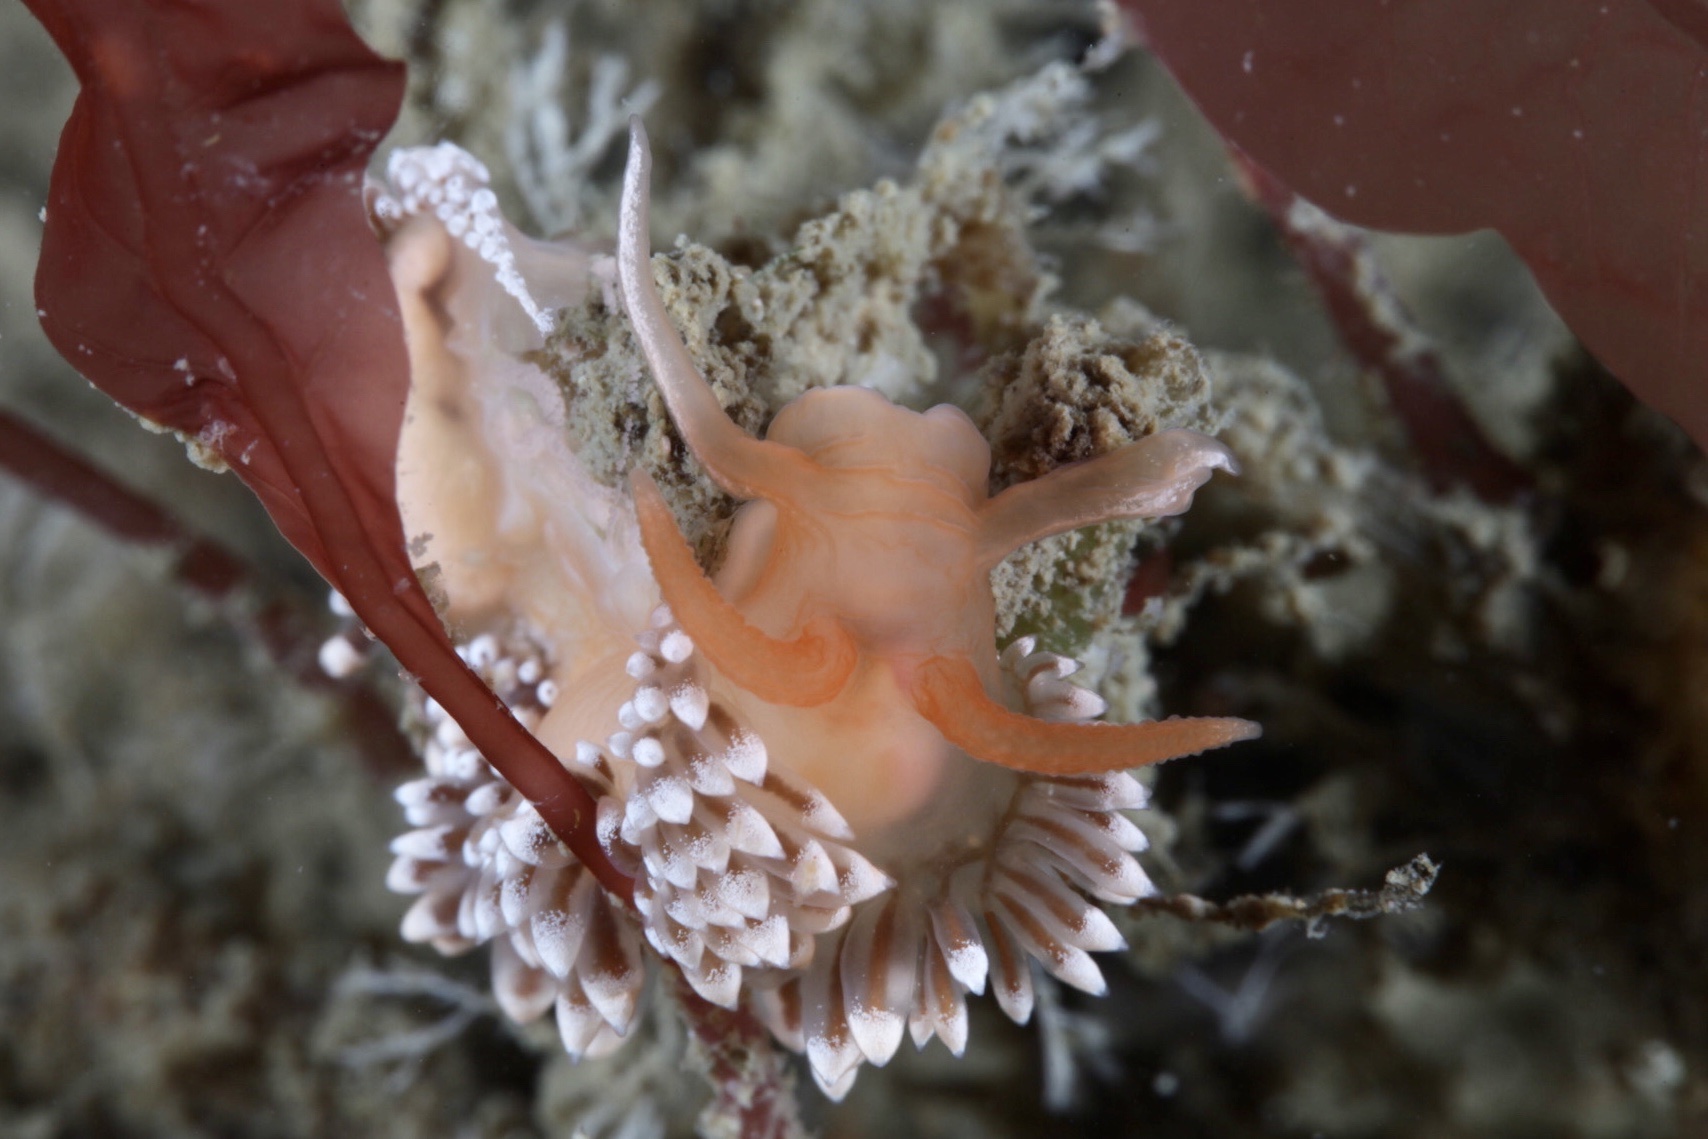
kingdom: Animalia
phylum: Mollusca
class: Gastropoda
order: Nudibranchia
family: Coryphellidae
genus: Coryphella
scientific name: Coryphella verrucosa
